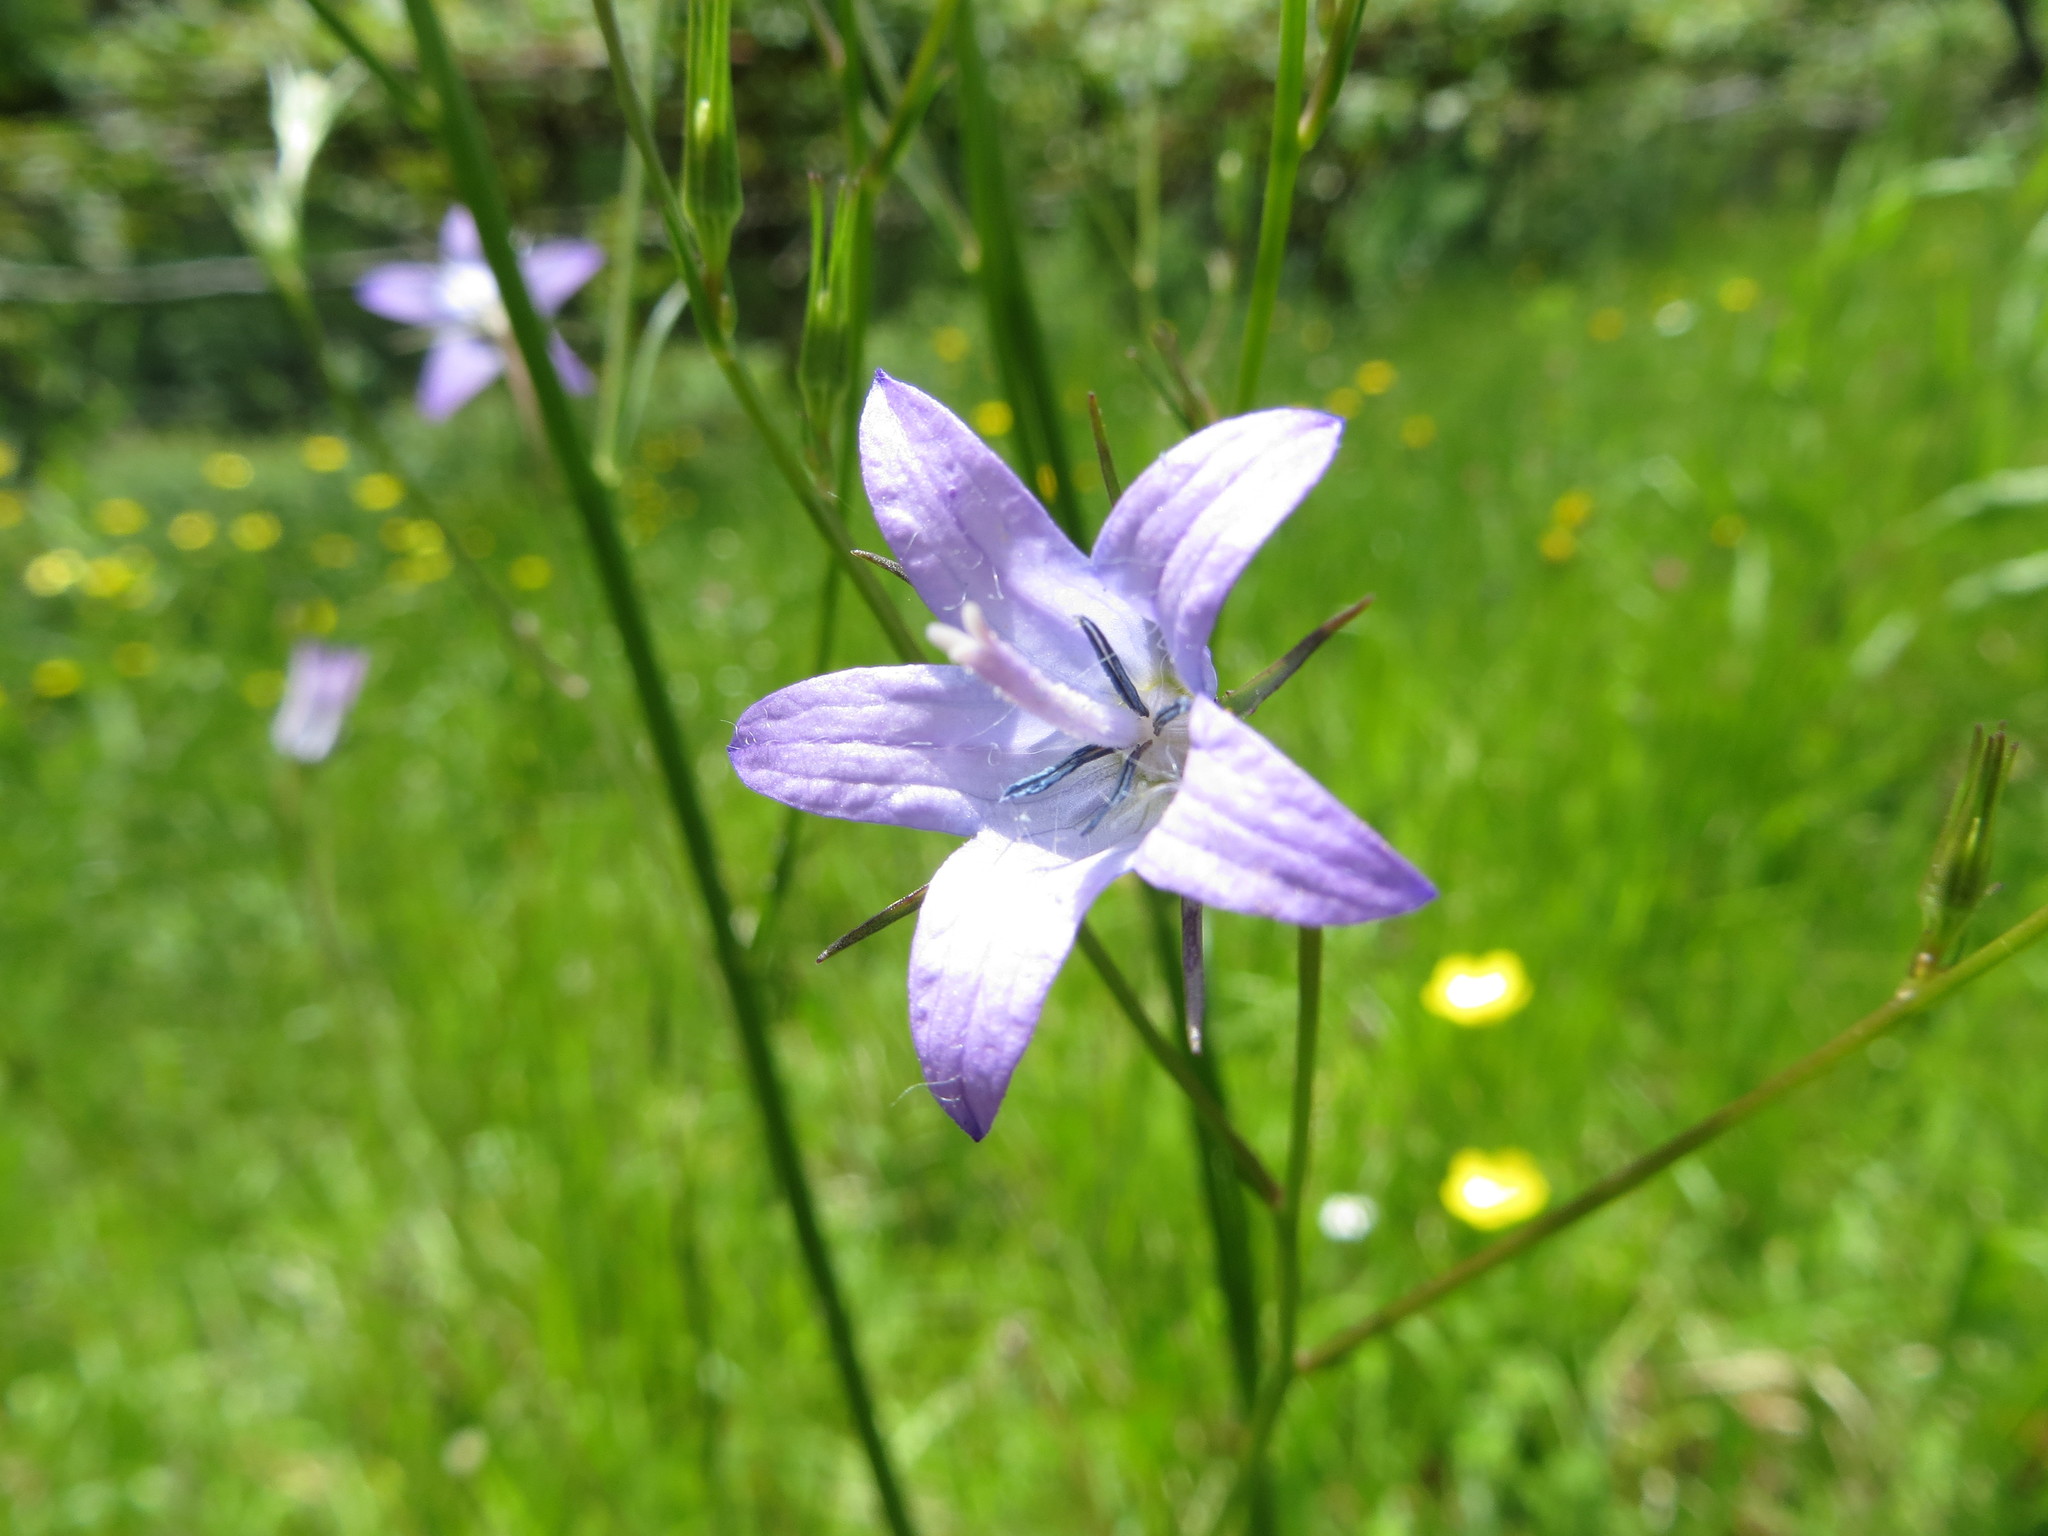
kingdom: Plantae
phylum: Tracheophyta
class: Magnoliopsida
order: Asterales
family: Campanulaceae
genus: Campanula
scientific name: Campanula patula
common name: Spreading bellflower
